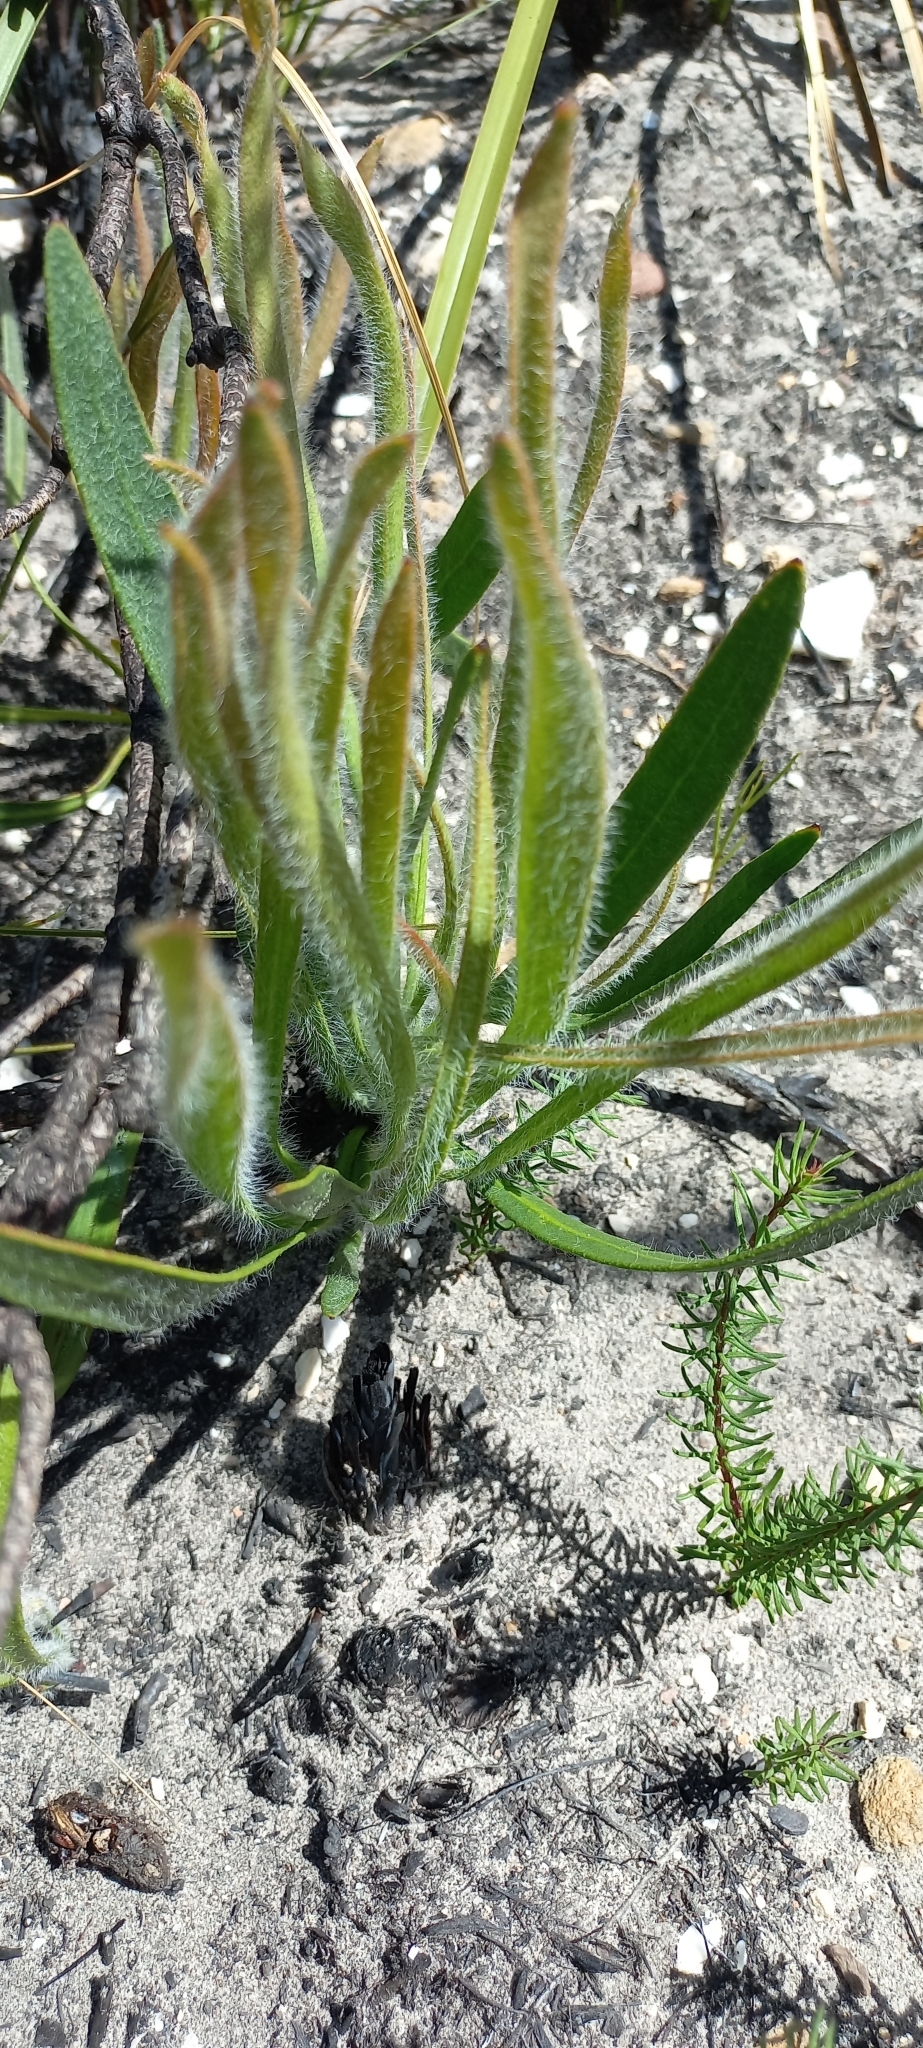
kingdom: Plantae
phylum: Tracheophyta
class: Magnoliopsida
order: Proteales
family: Proteaceae
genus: Protea
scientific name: Protea scabra
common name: Sandpaper-leaf sugarbush
